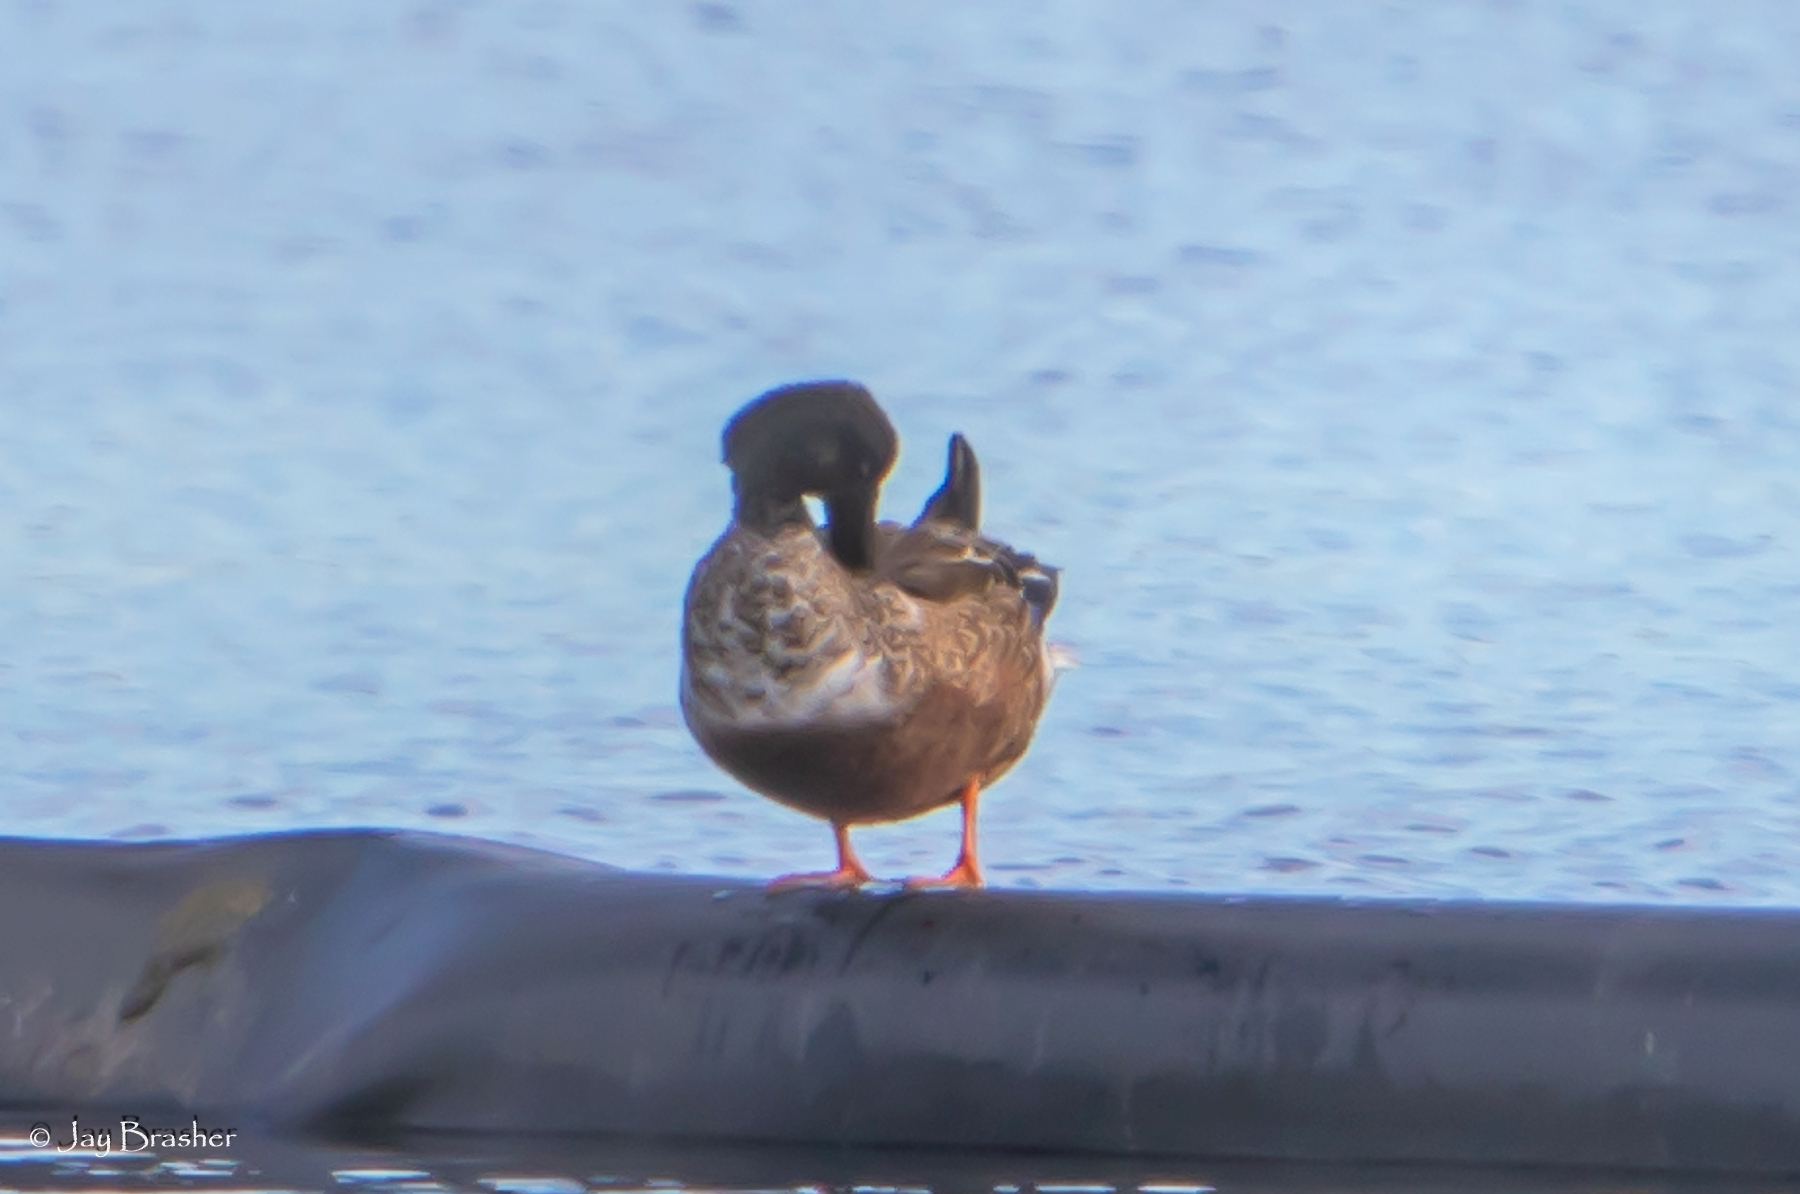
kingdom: Animalia
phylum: Chordata
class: Aves
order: Anseriformes
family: Anatidae
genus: Spatula
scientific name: Spatula clypeata
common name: Northern shoveler
